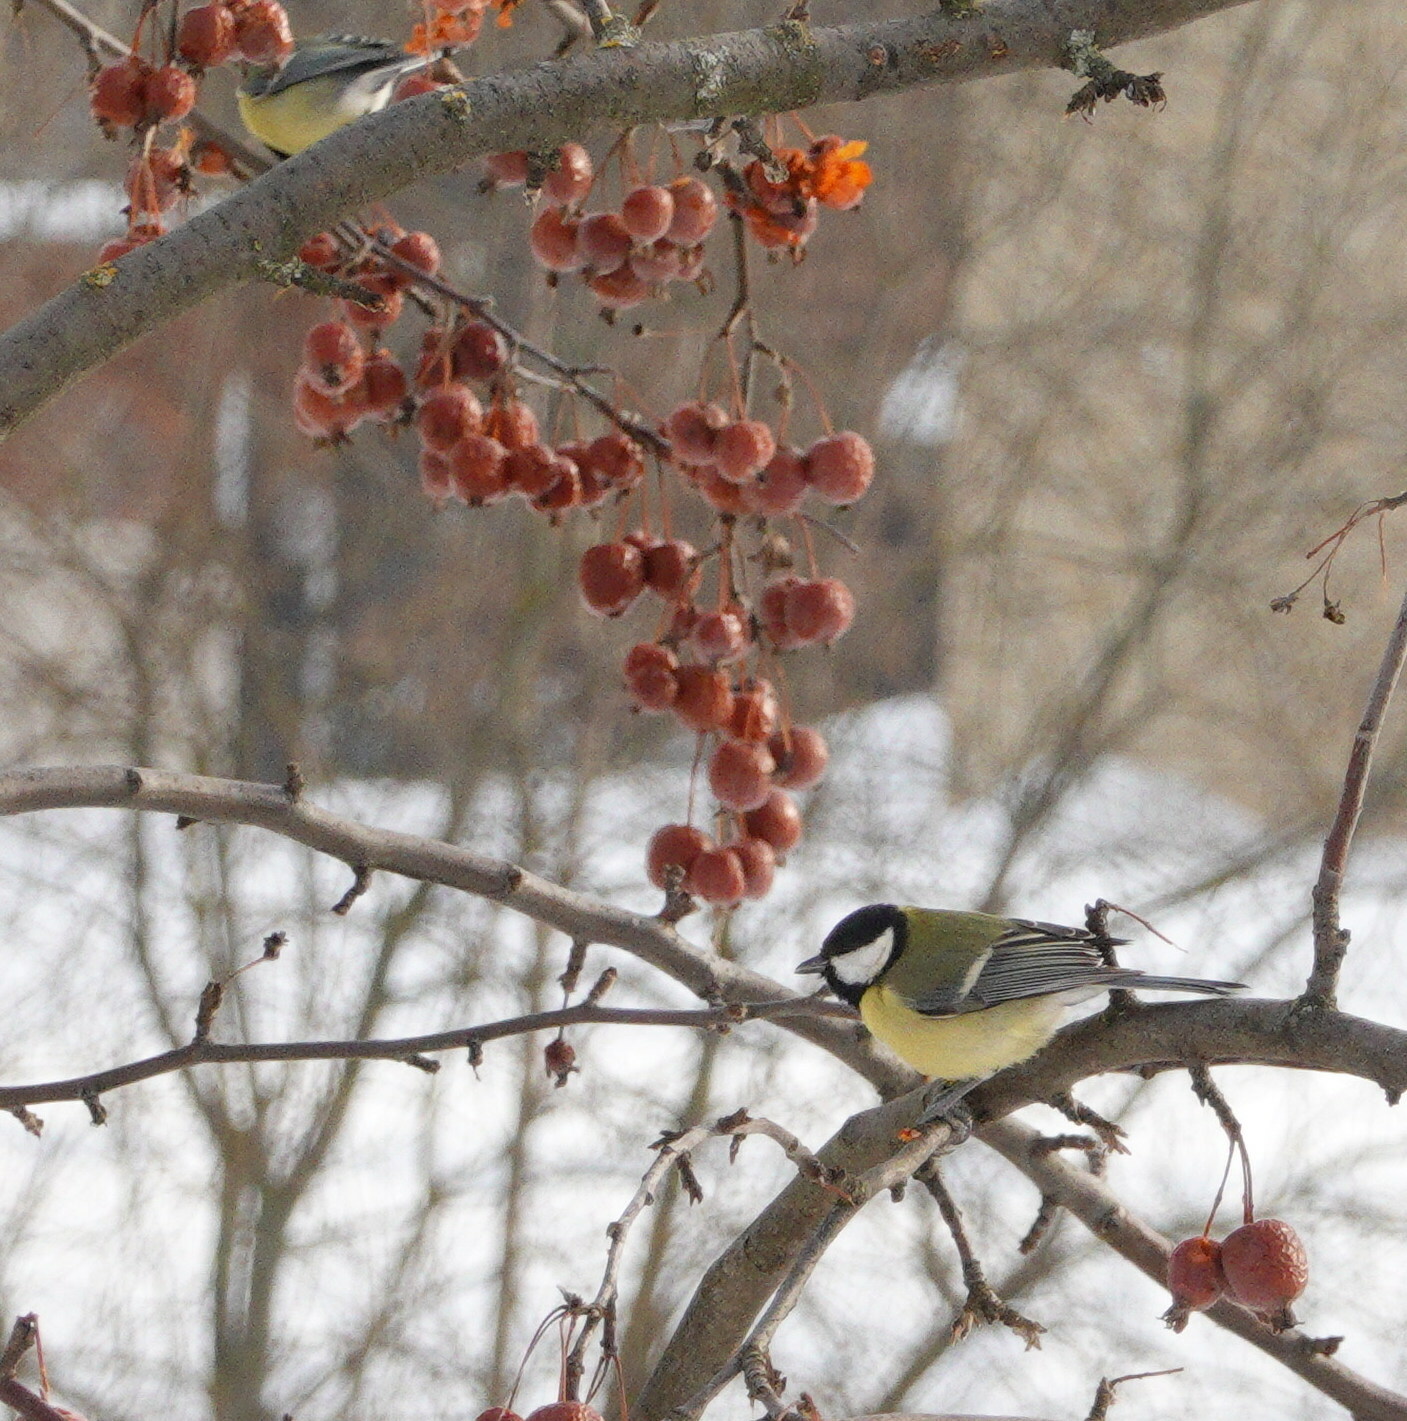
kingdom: Animalia
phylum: Chordata
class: Aves
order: Passeriformes
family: Paridae
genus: Parus
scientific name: Parus major
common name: Great tit
